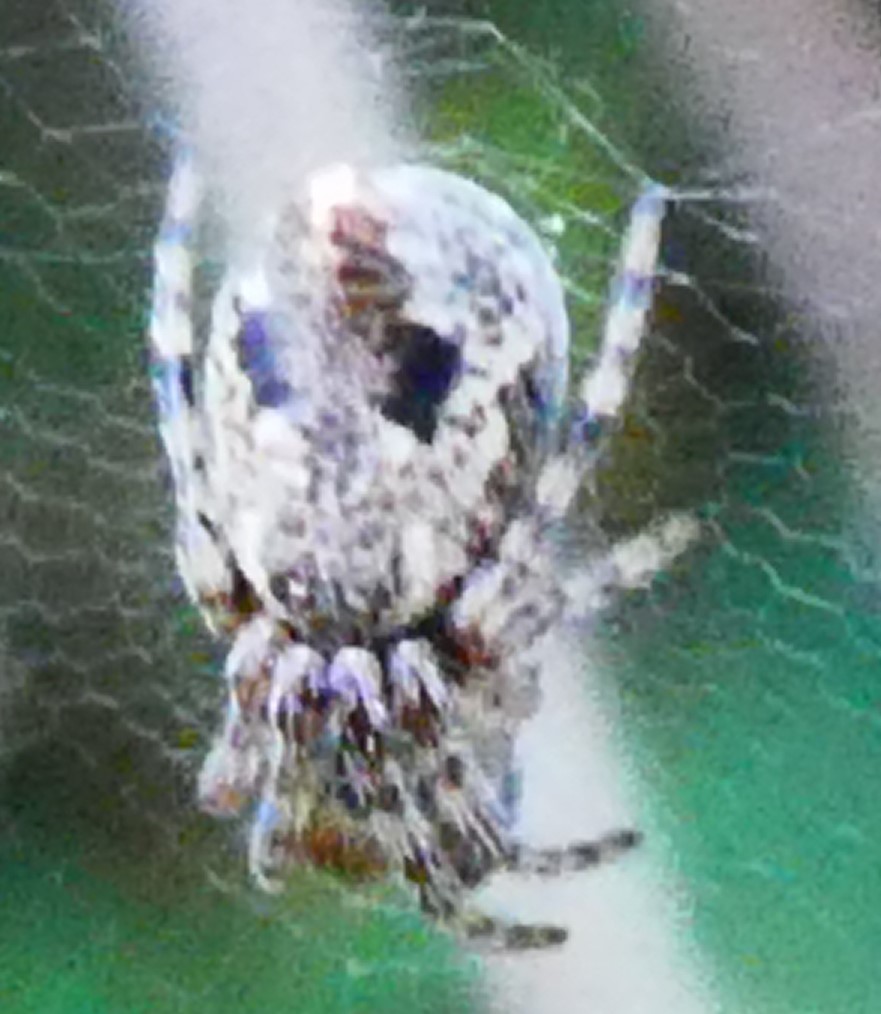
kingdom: Animalia
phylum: Arthropoda
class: Arachnida
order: Araneae
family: Araneidae
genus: Cyclosa
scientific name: Cyclosa conica
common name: Conical trashline orbweaver
